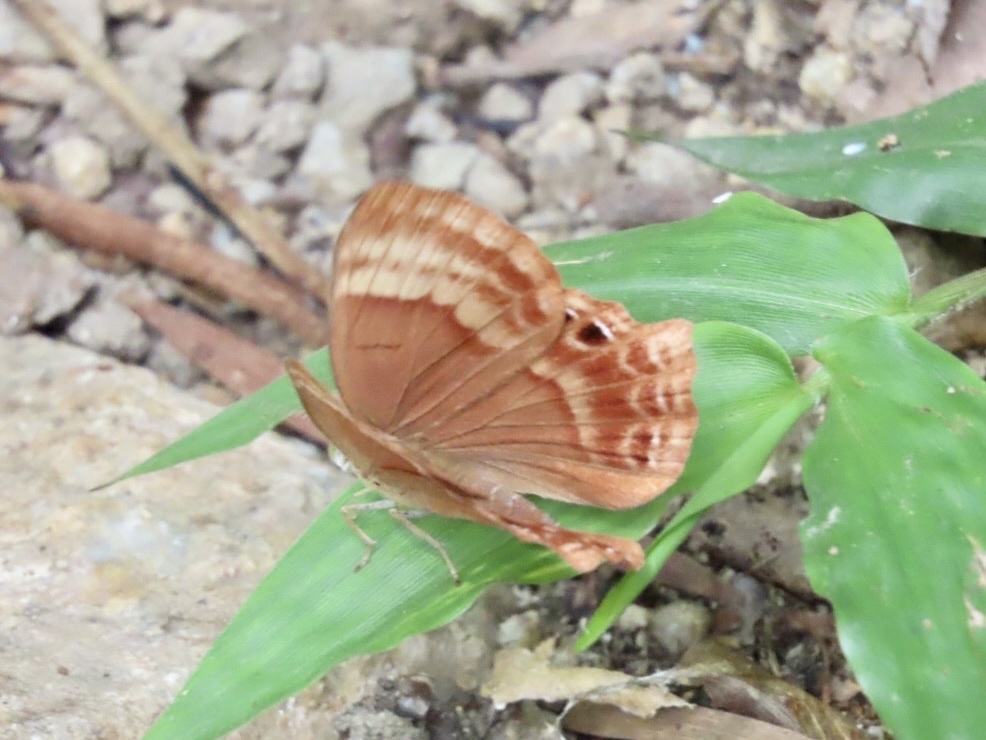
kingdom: Animalia
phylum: Arthropoda
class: Insecta
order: Lepidoptera
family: Lycaenidae
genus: Abisara
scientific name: Abisara echeria
